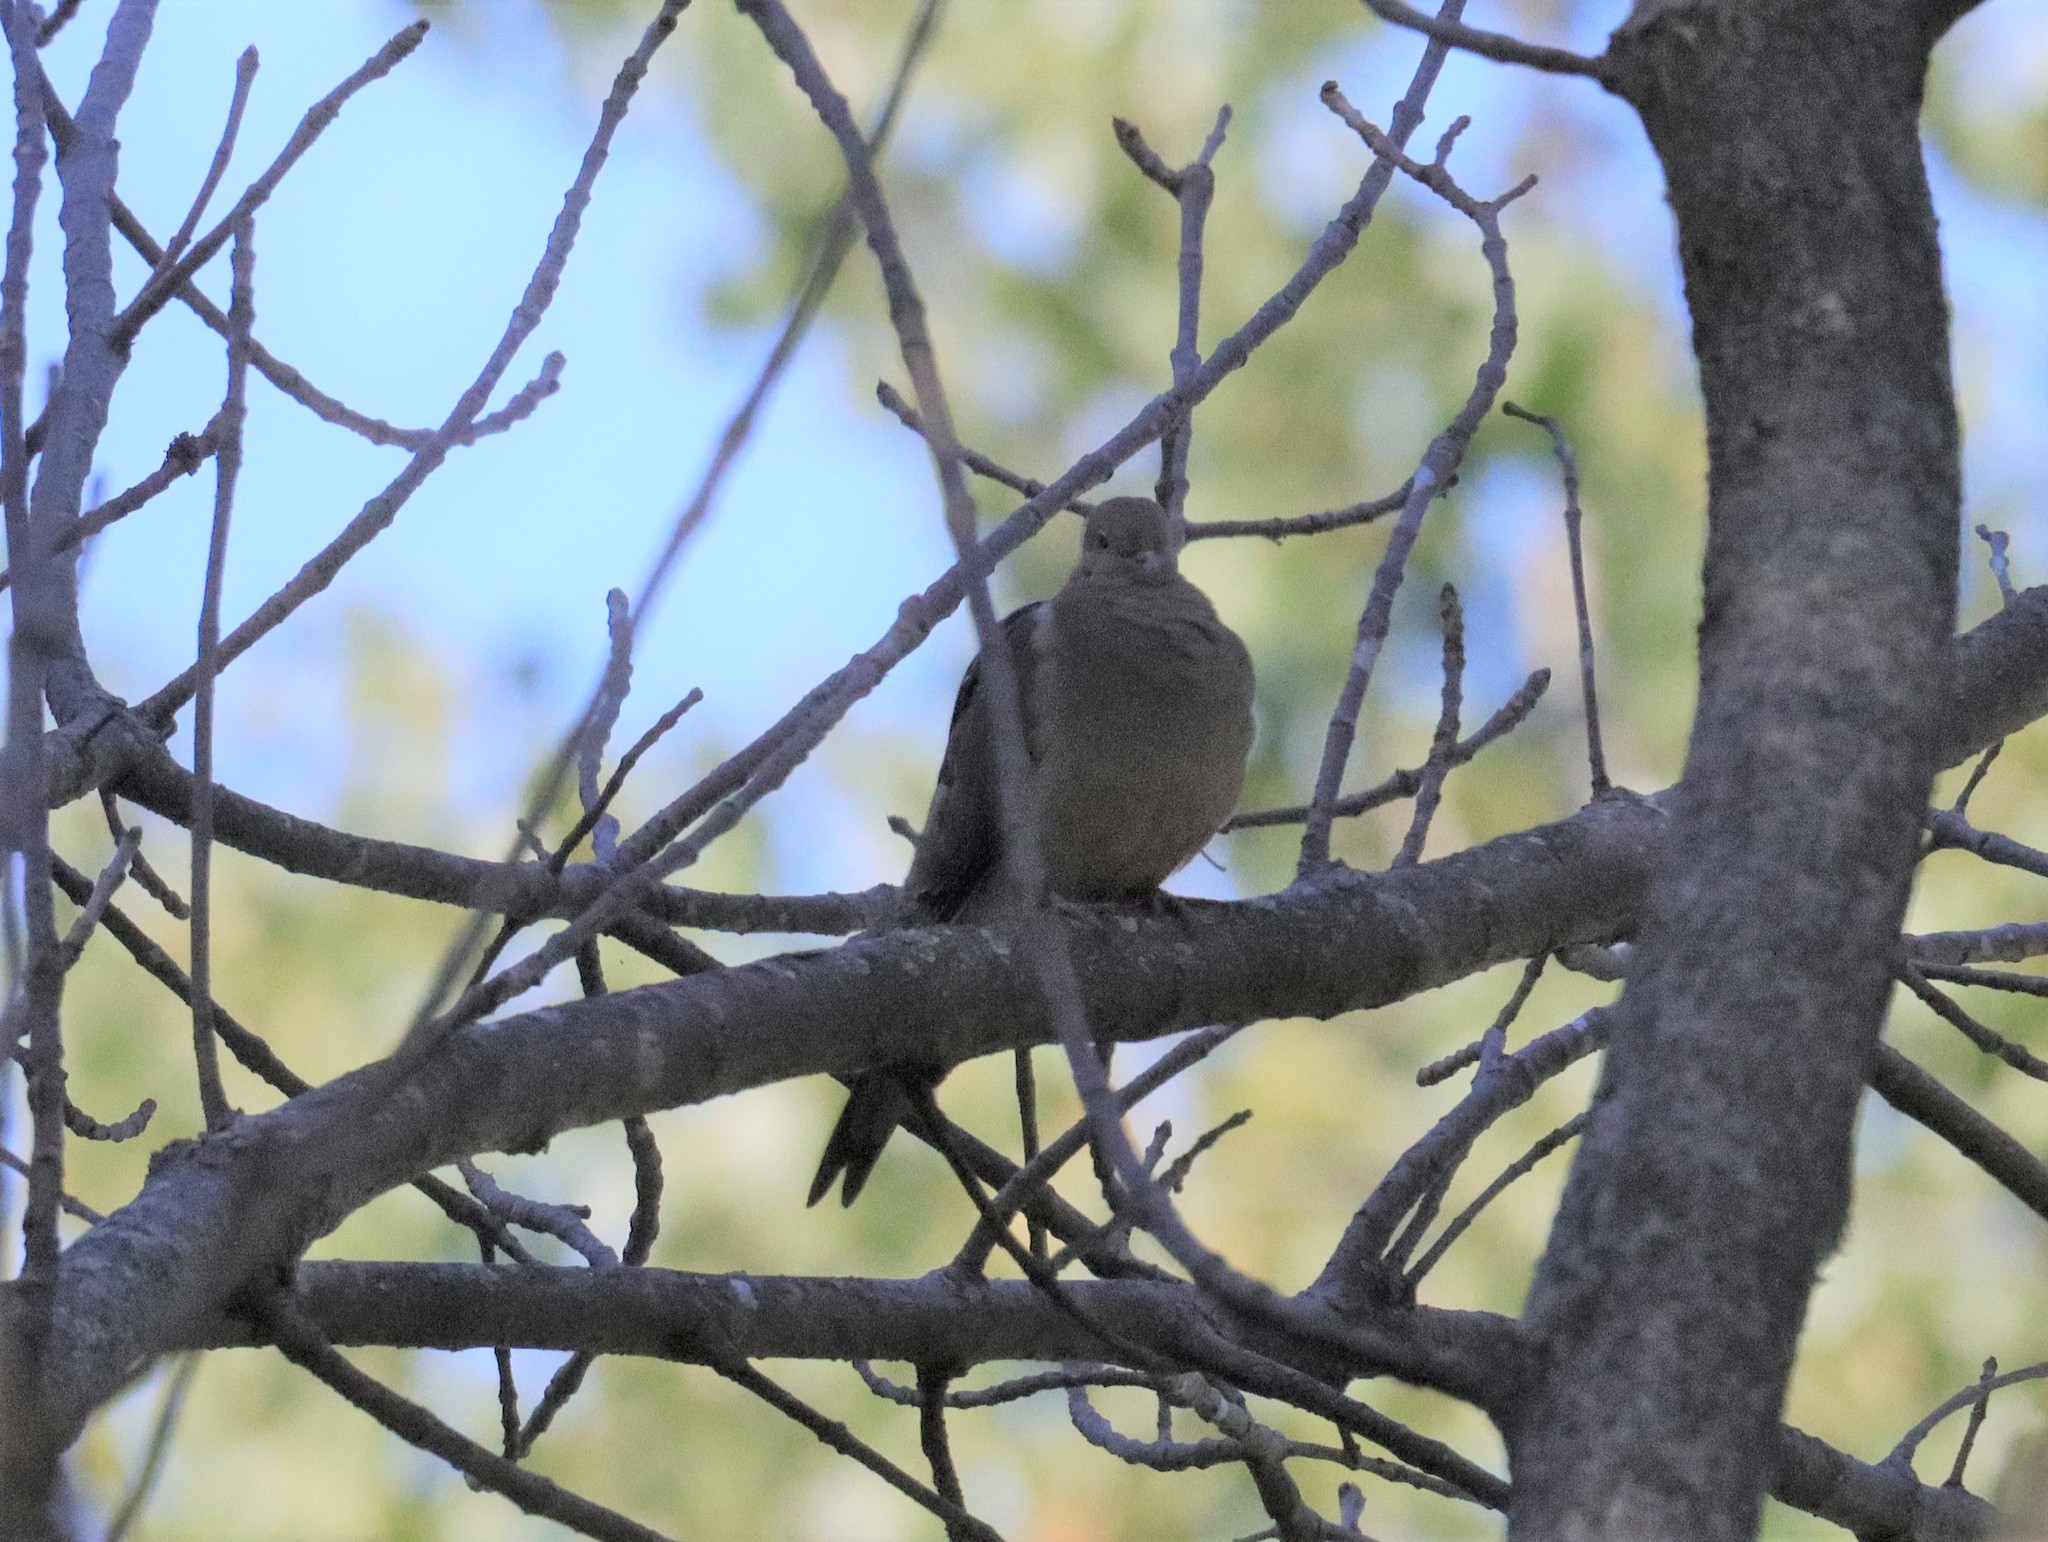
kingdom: Animalia
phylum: Chordata
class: Aves
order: Columbiformes
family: Columbidae
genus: Zenaida
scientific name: Zenaida macroura
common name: Mourning dove
